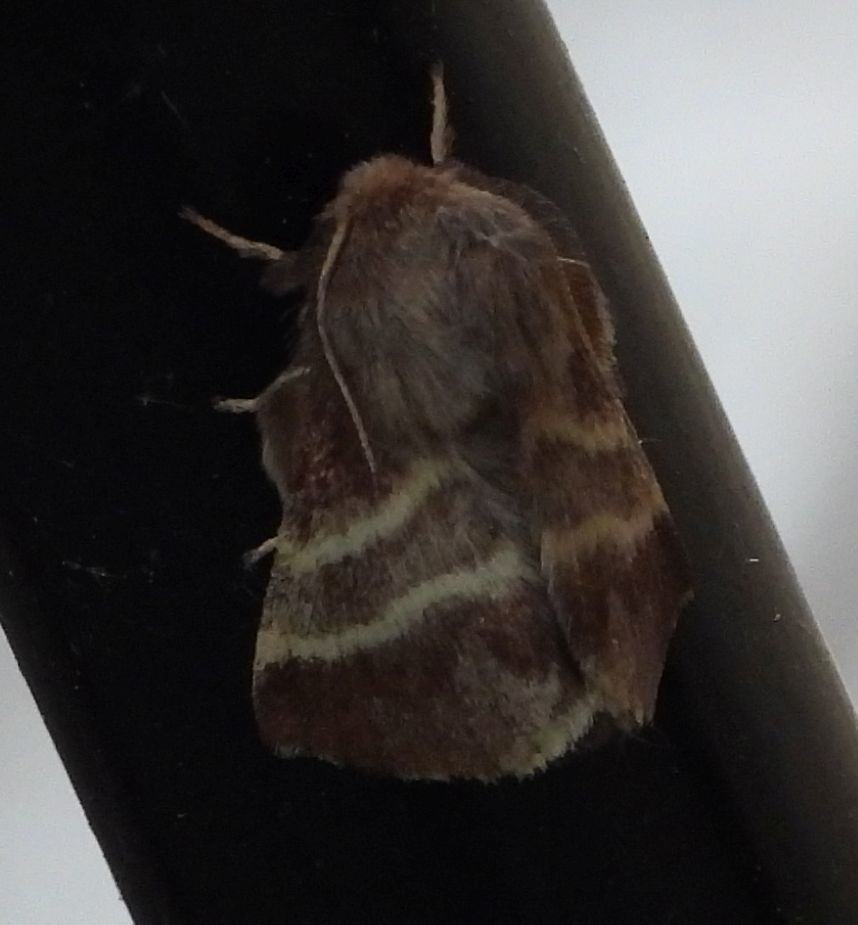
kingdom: Animalia
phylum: Arthropoda
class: Insecta
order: Lepidoptera
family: Lasiocampidae
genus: Malacosoma
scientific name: Malacosoma americana
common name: Eastern tent caterpillar moth
